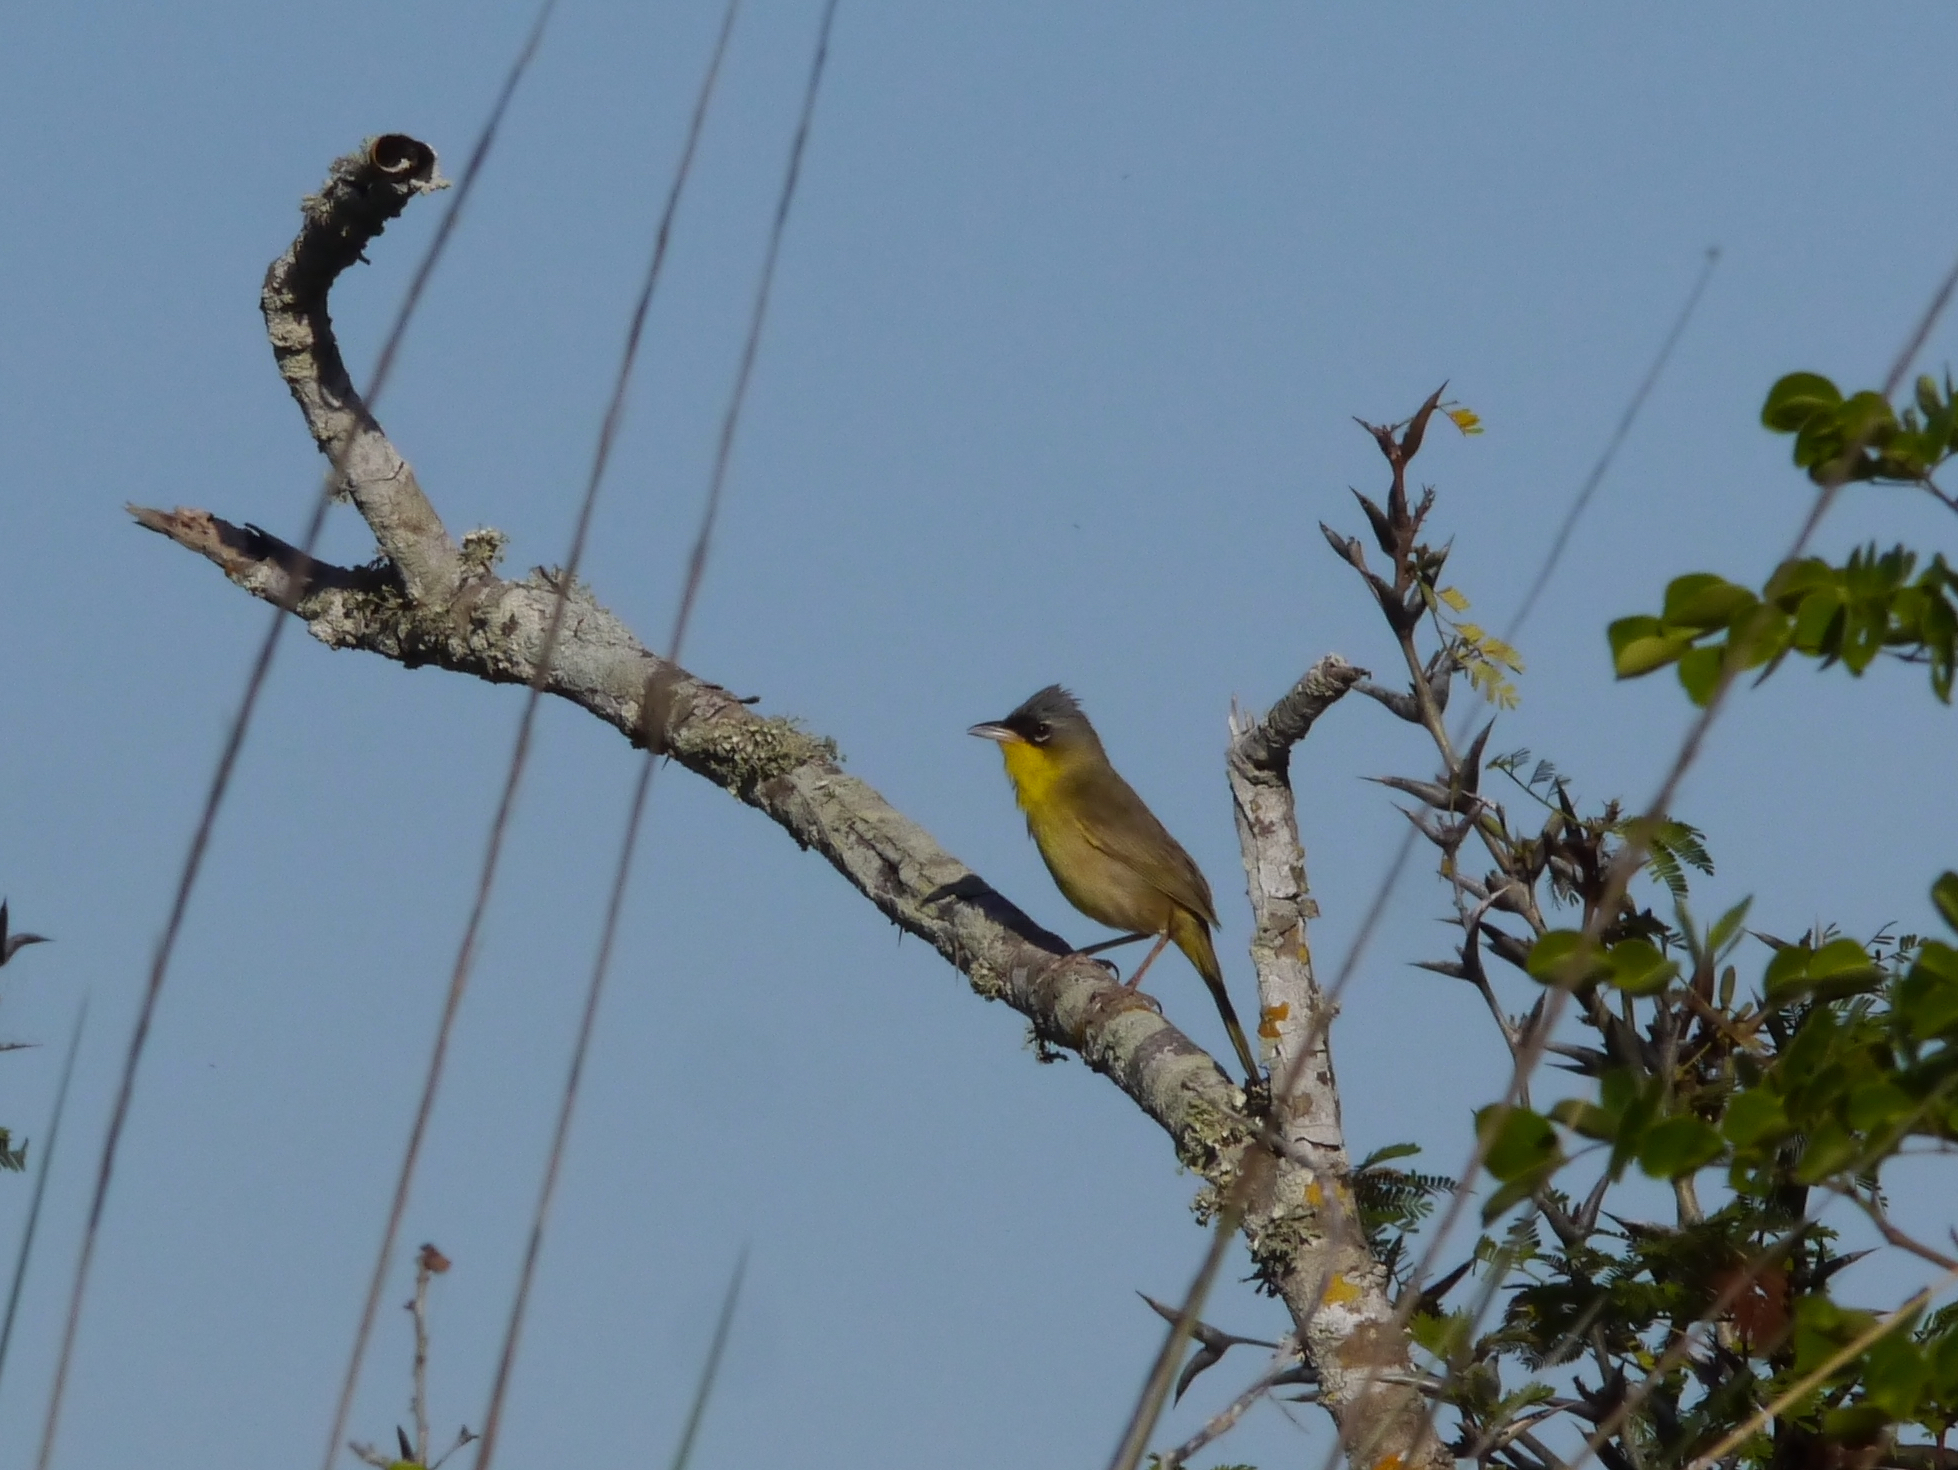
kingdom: Animalia
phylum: Chordata
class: Aves
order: Passeriformes
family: Parulidae
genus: Geothlypis
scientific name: Geothlypis poliocephala
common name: Gray-crowned yellowthroat
